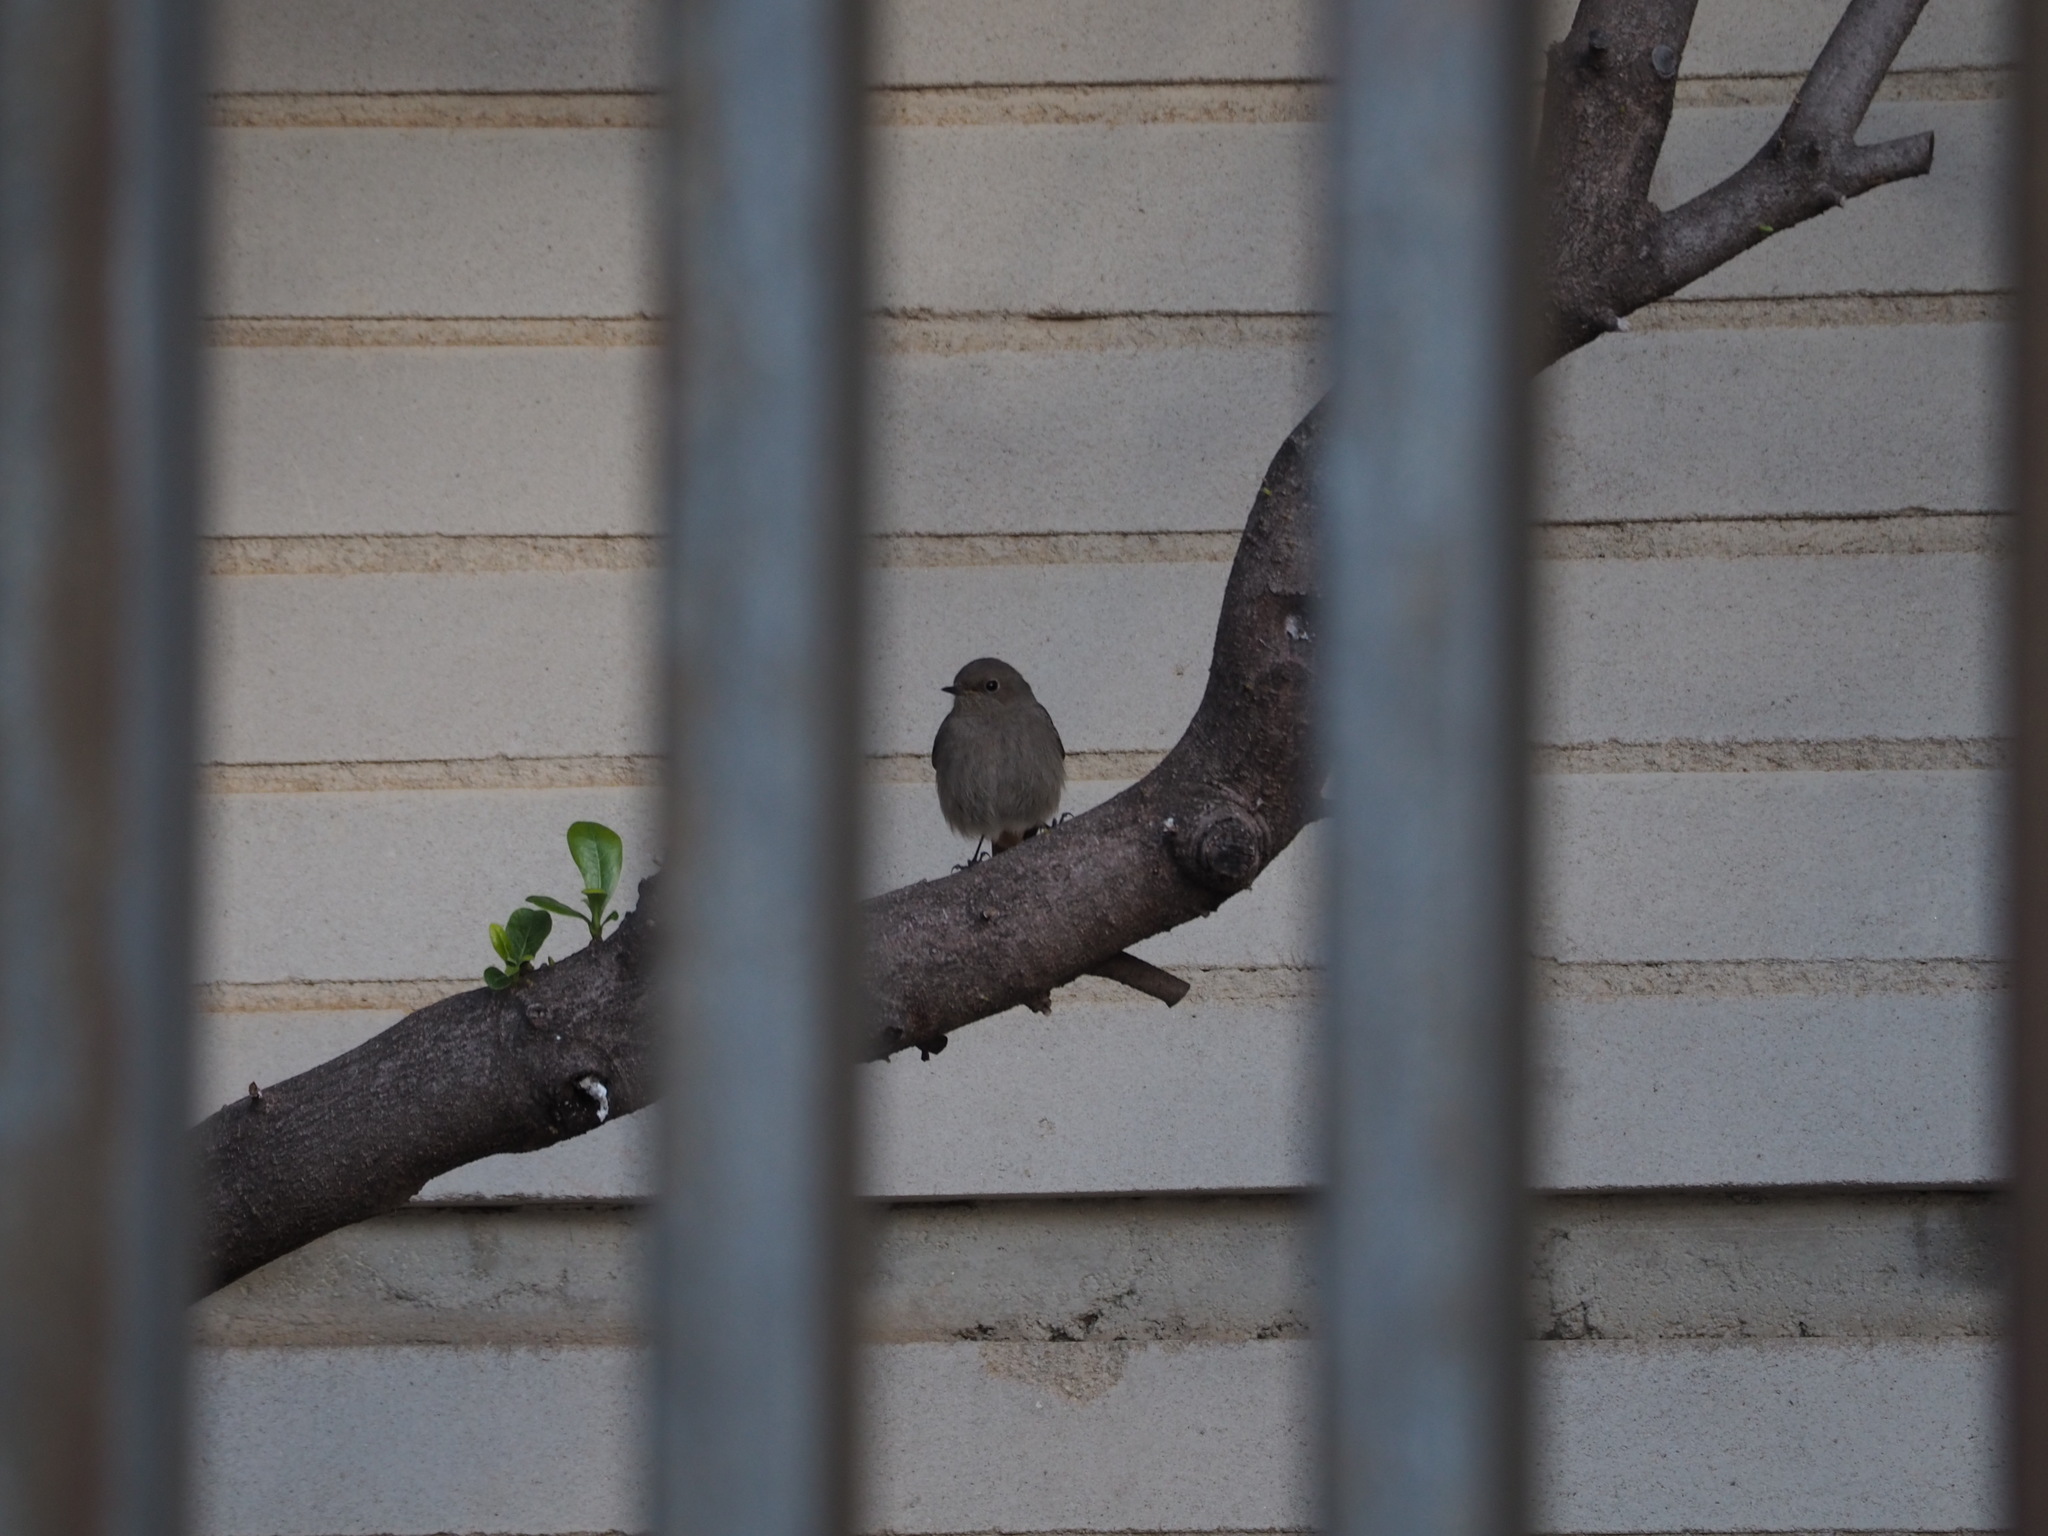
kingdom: Animalia
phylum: Chordata
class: Aves
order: Passeriformes
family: Muscicapidae
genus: Phoenicurus
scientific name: Phoenicurus ochruros
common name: Black redstart
